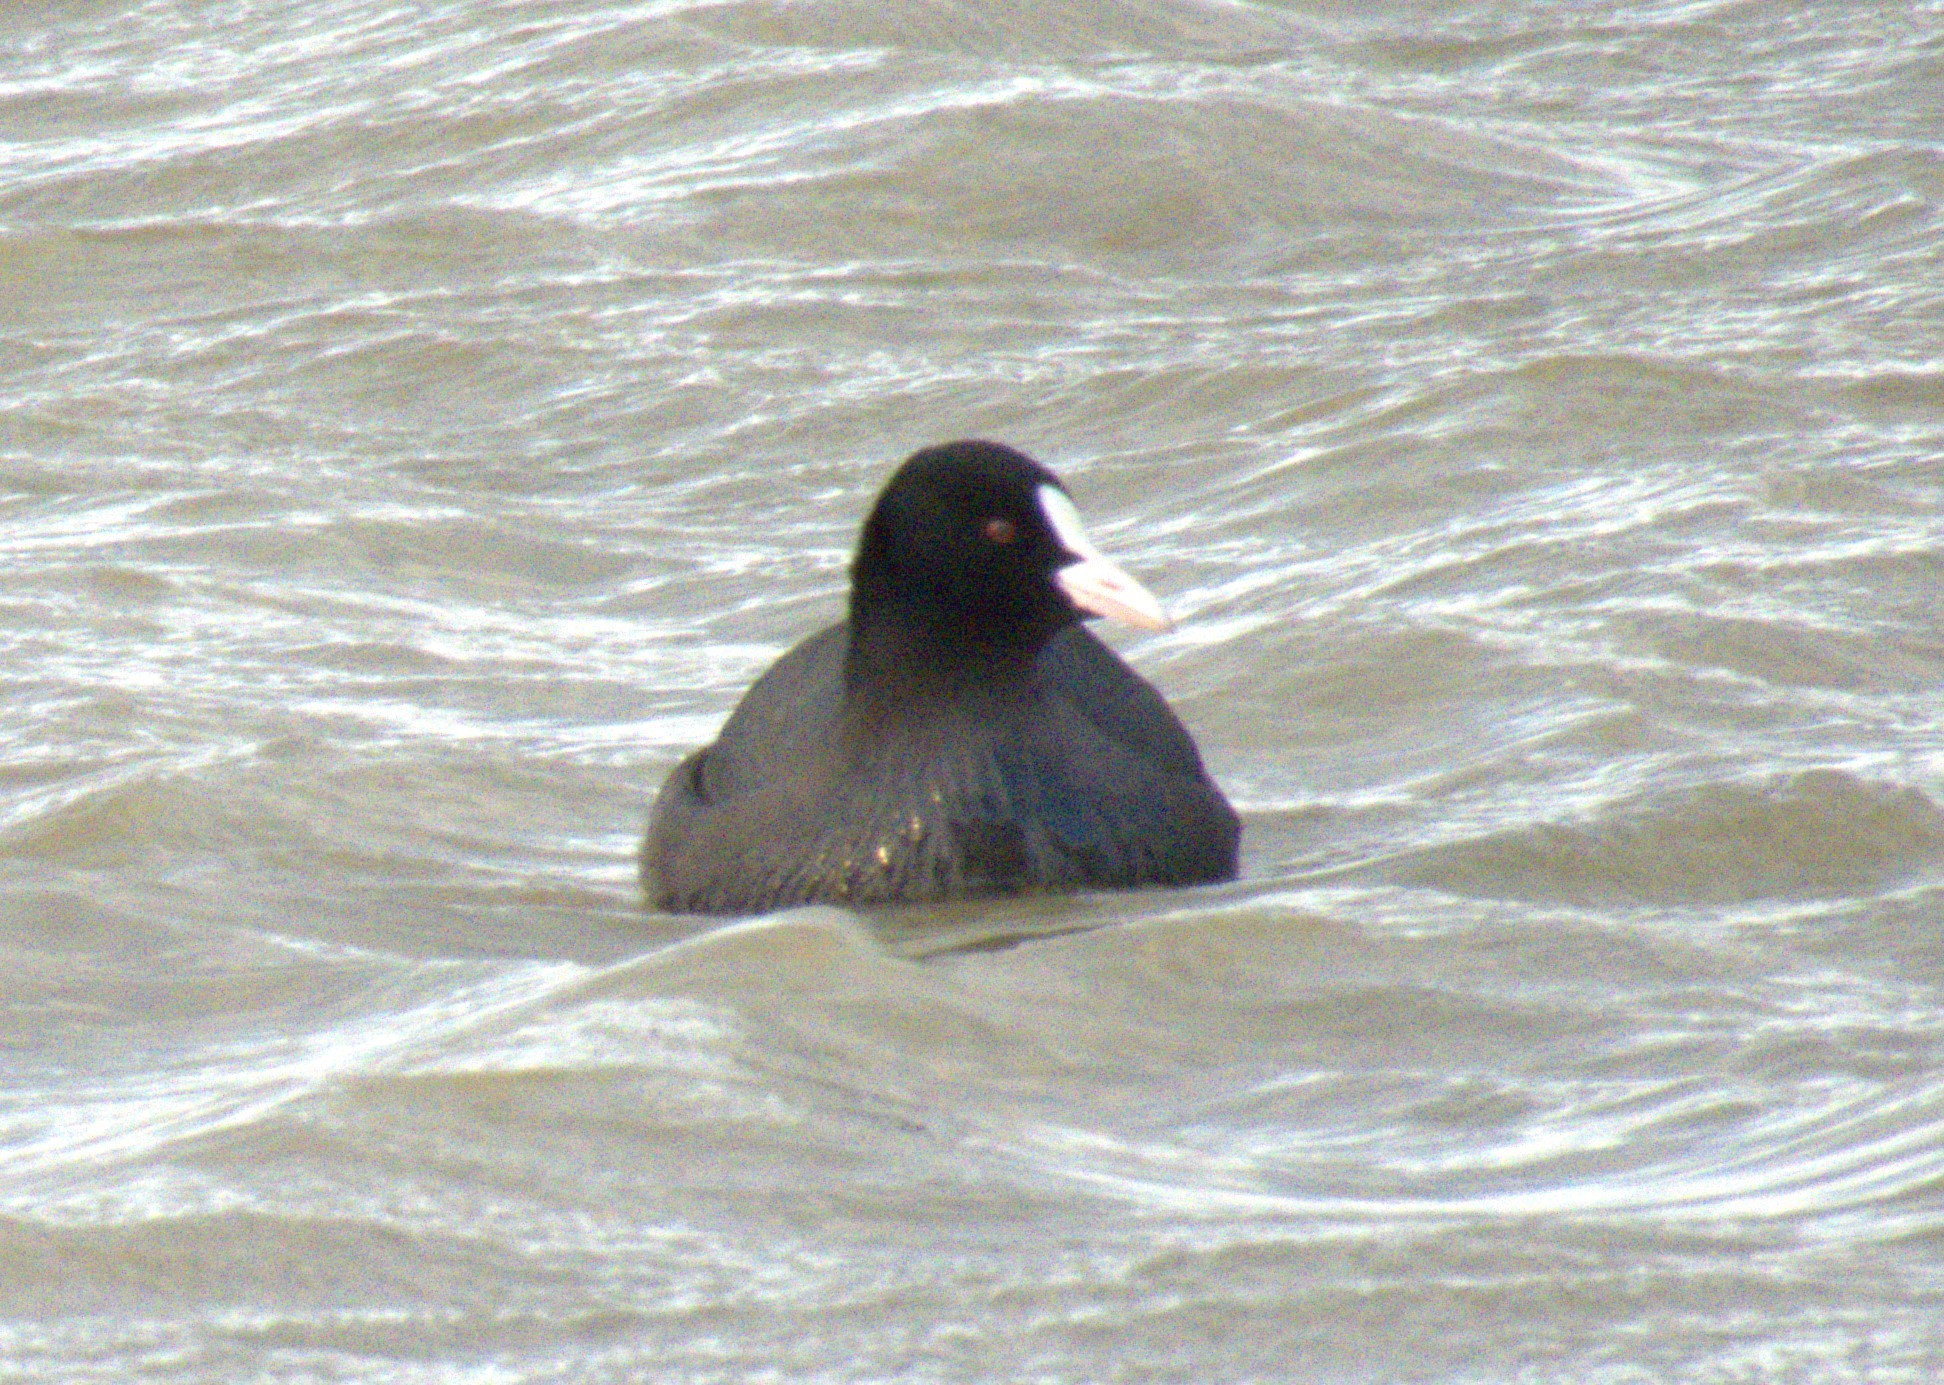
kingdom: Animalia
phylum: Chordata
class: Aves
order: Gruiformes
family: Rallidae
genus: Fulica
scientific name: Fulica atra
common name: Eurasian coot
